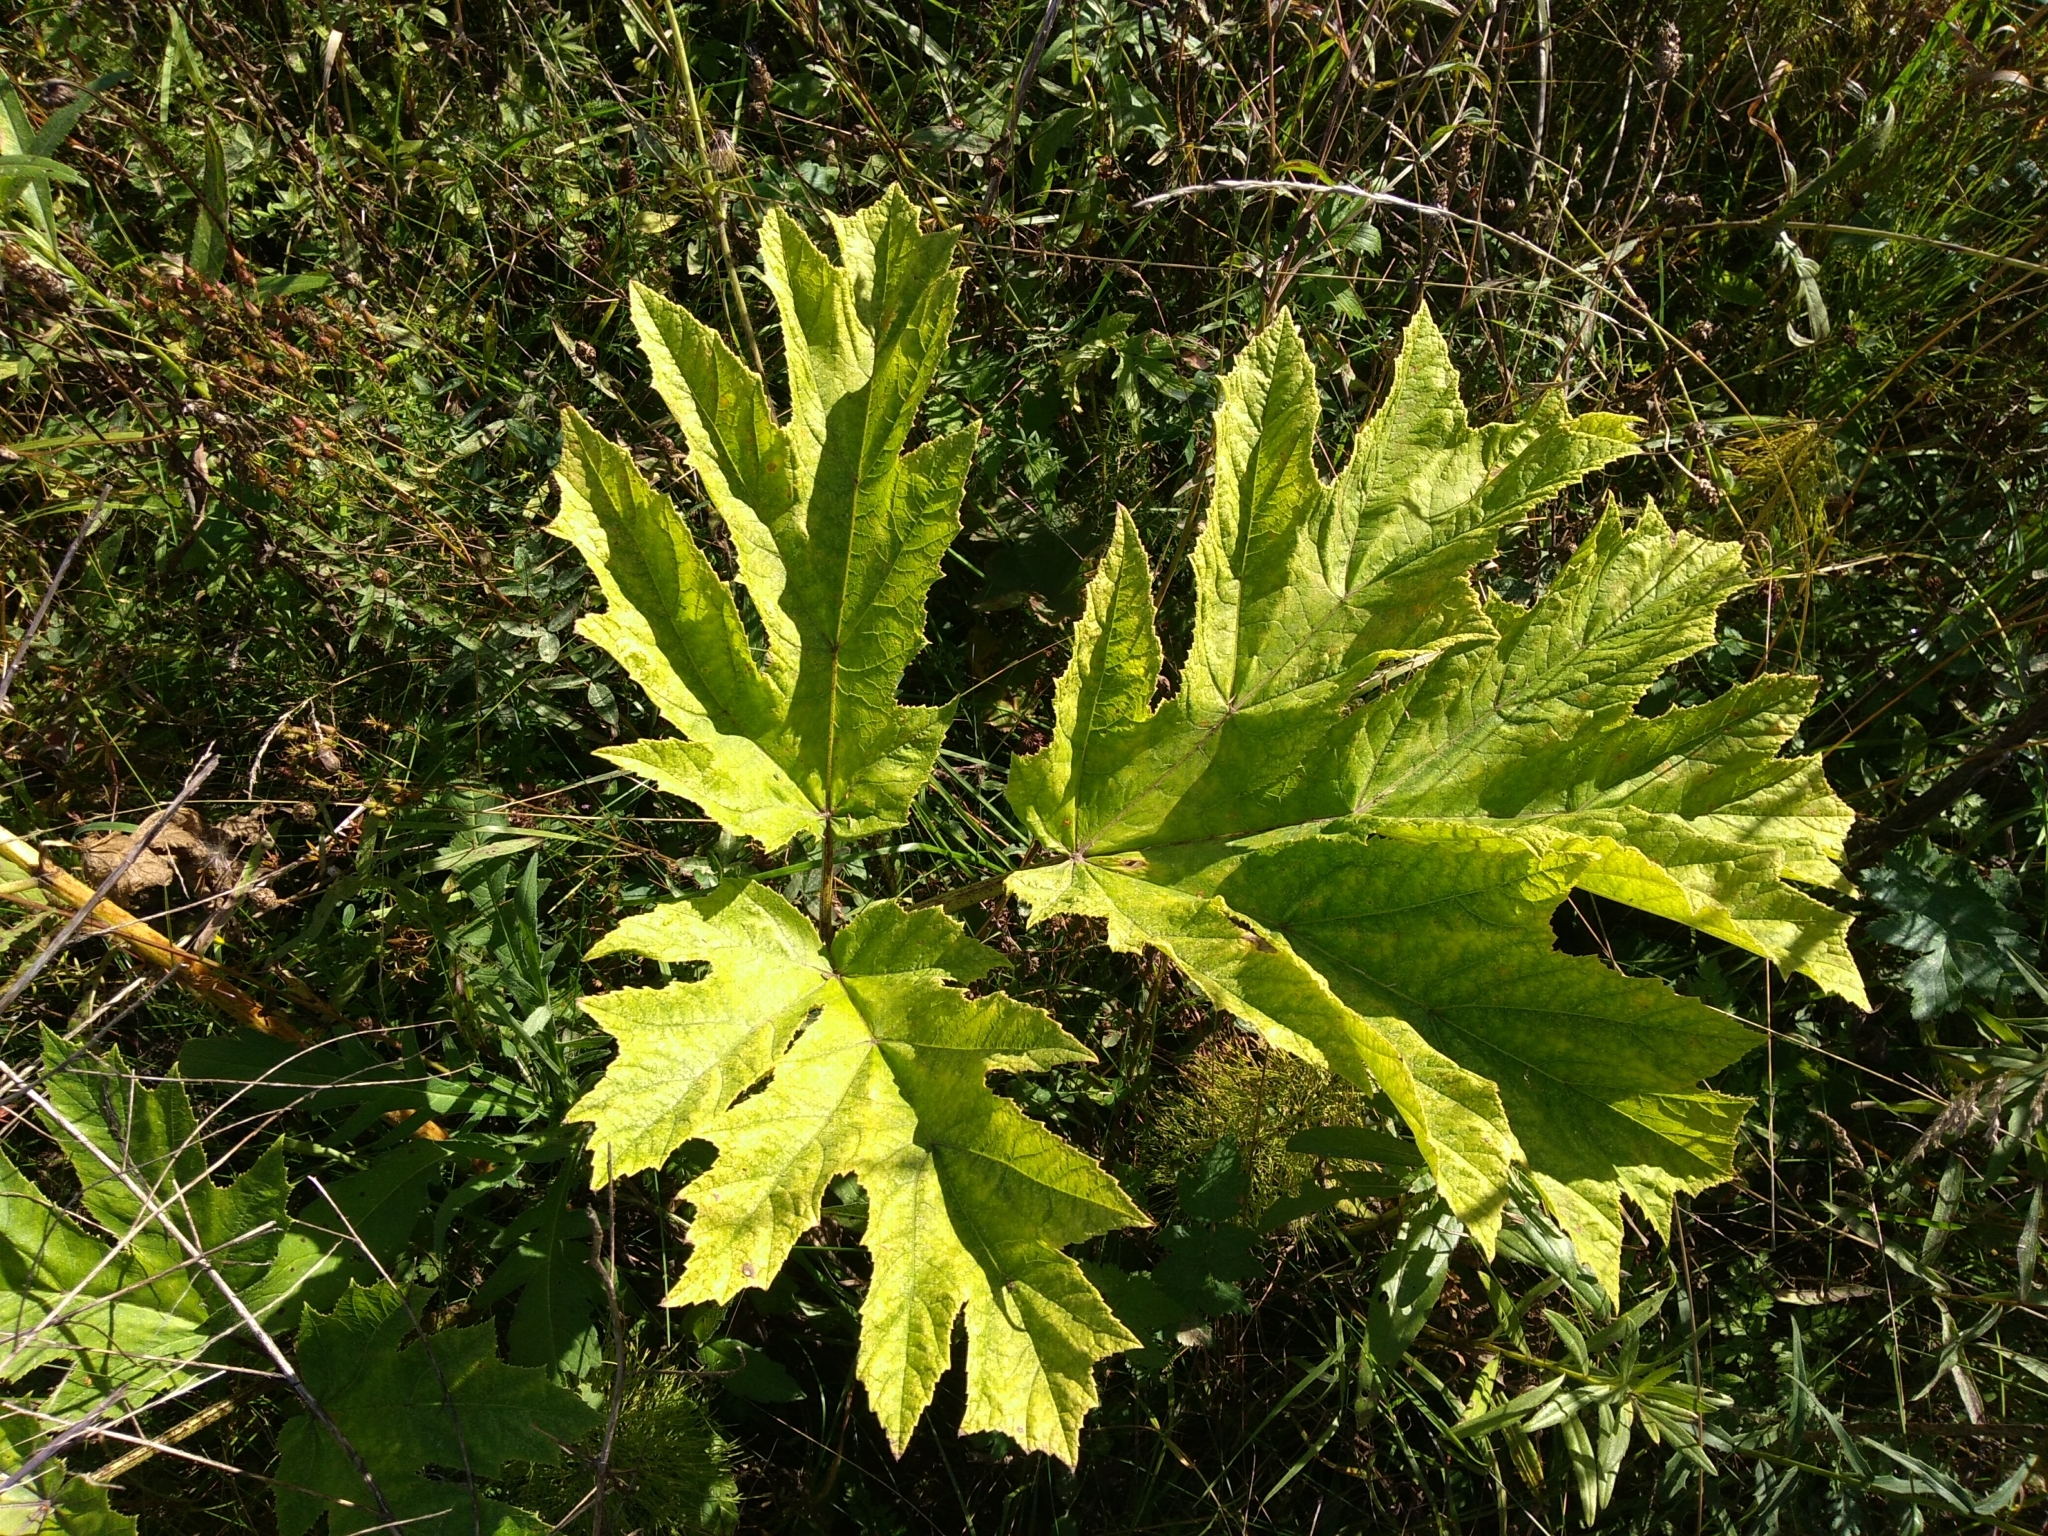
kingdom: Plantae
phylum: Tracheophyta
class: Magnoliopsida
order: Apiales
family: Apiaceae
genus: Heracleum
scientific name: Heracleum sosnowskyi
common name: Sosnowsky's hogweed
